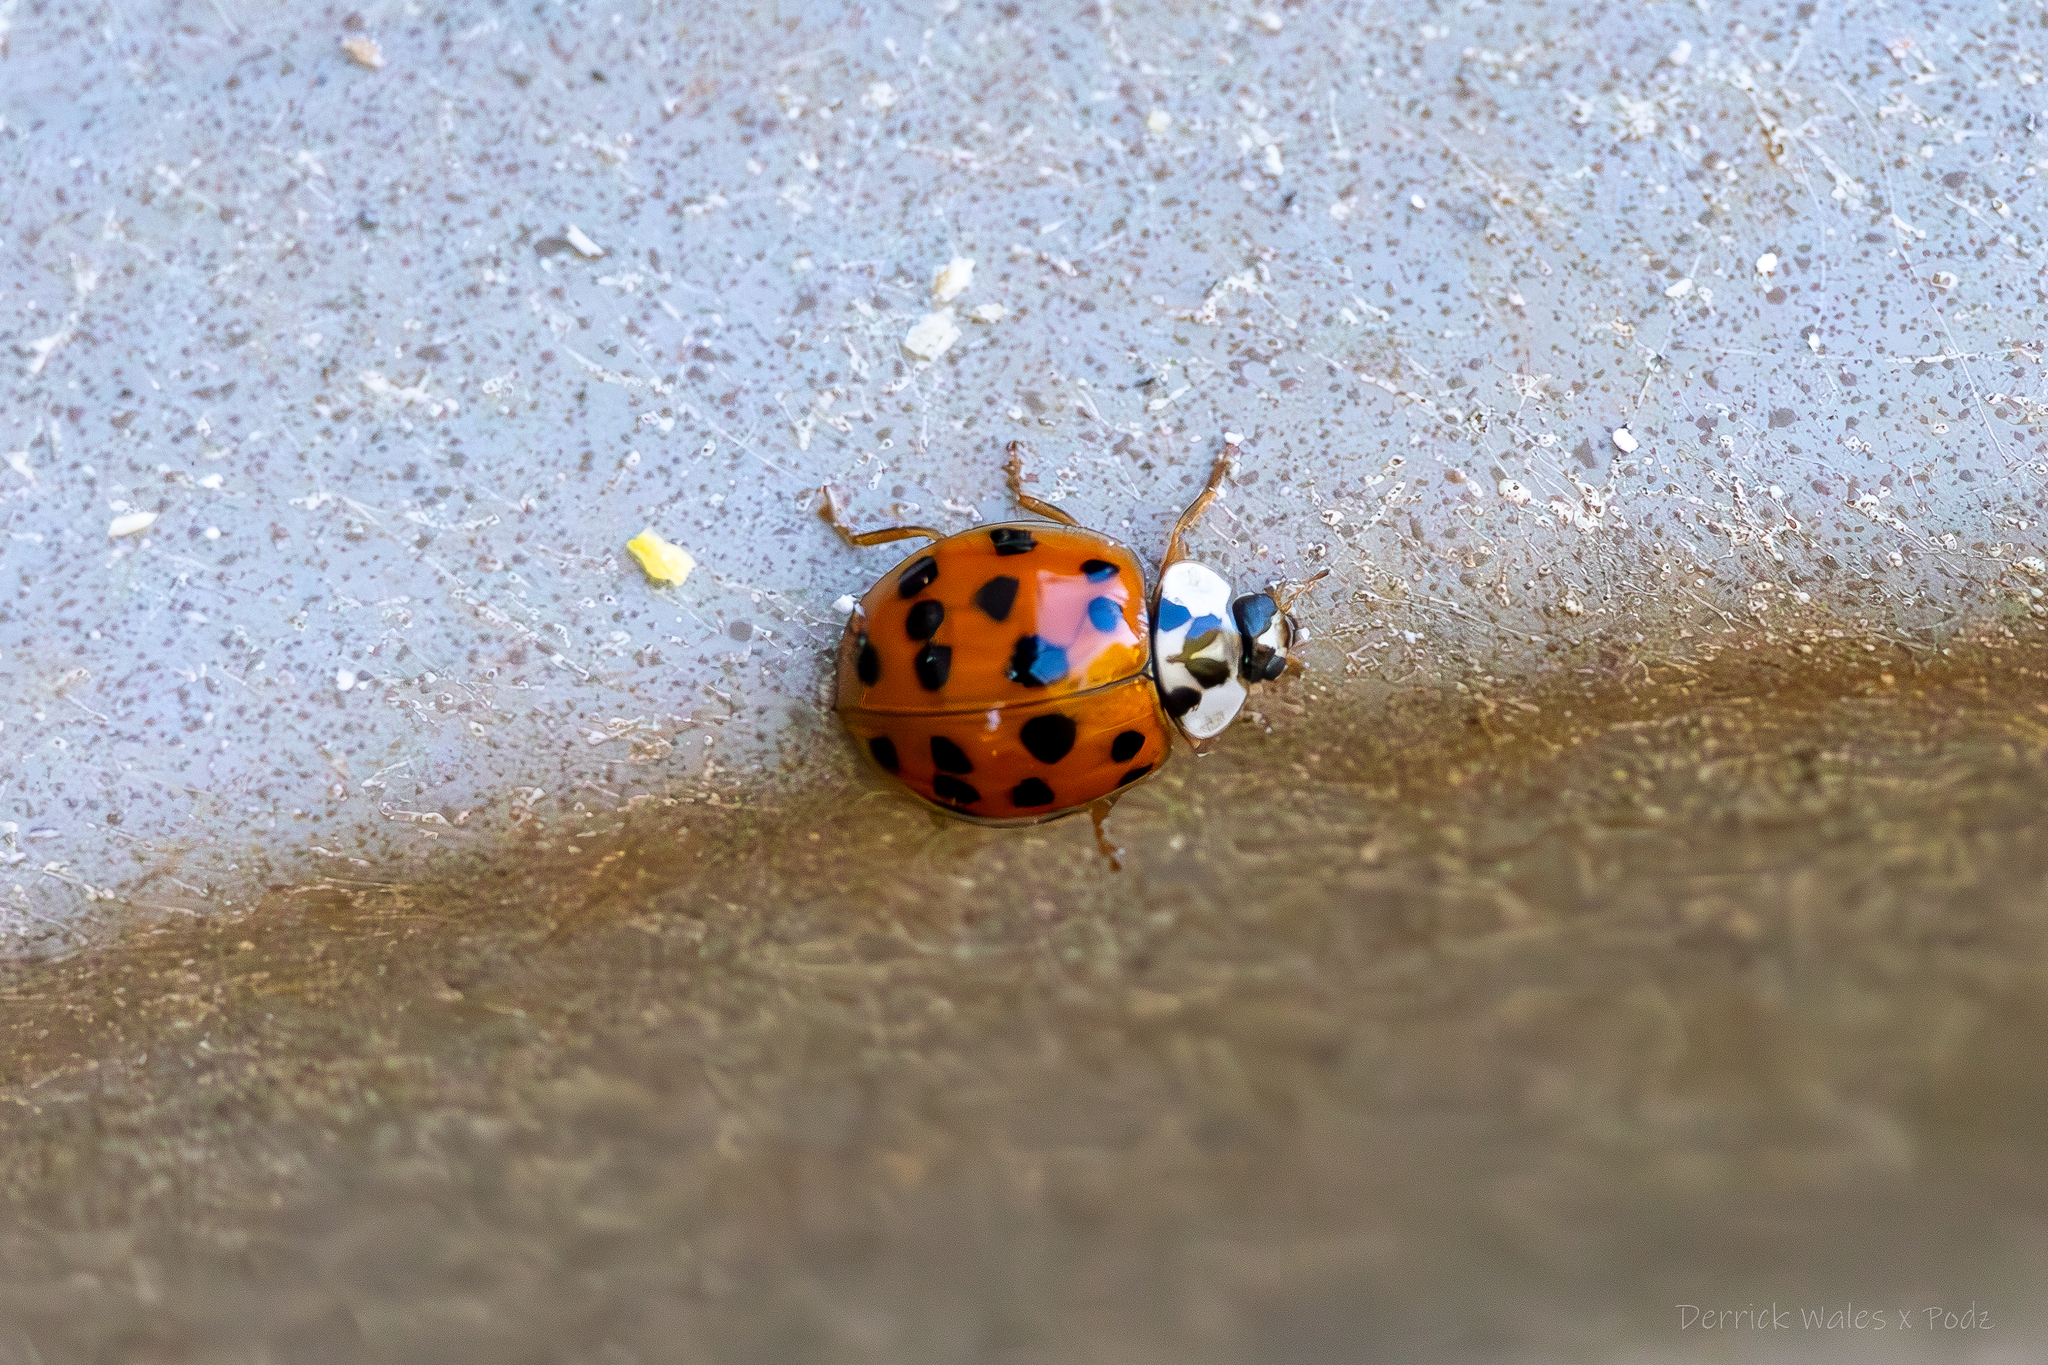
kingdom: Animalia
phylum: Arthropoda
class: Insecta
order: Coleoptera
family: Coccinellidae
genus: Harmonia
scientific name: Harmonia axyridis
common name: Harlequin ladybird
